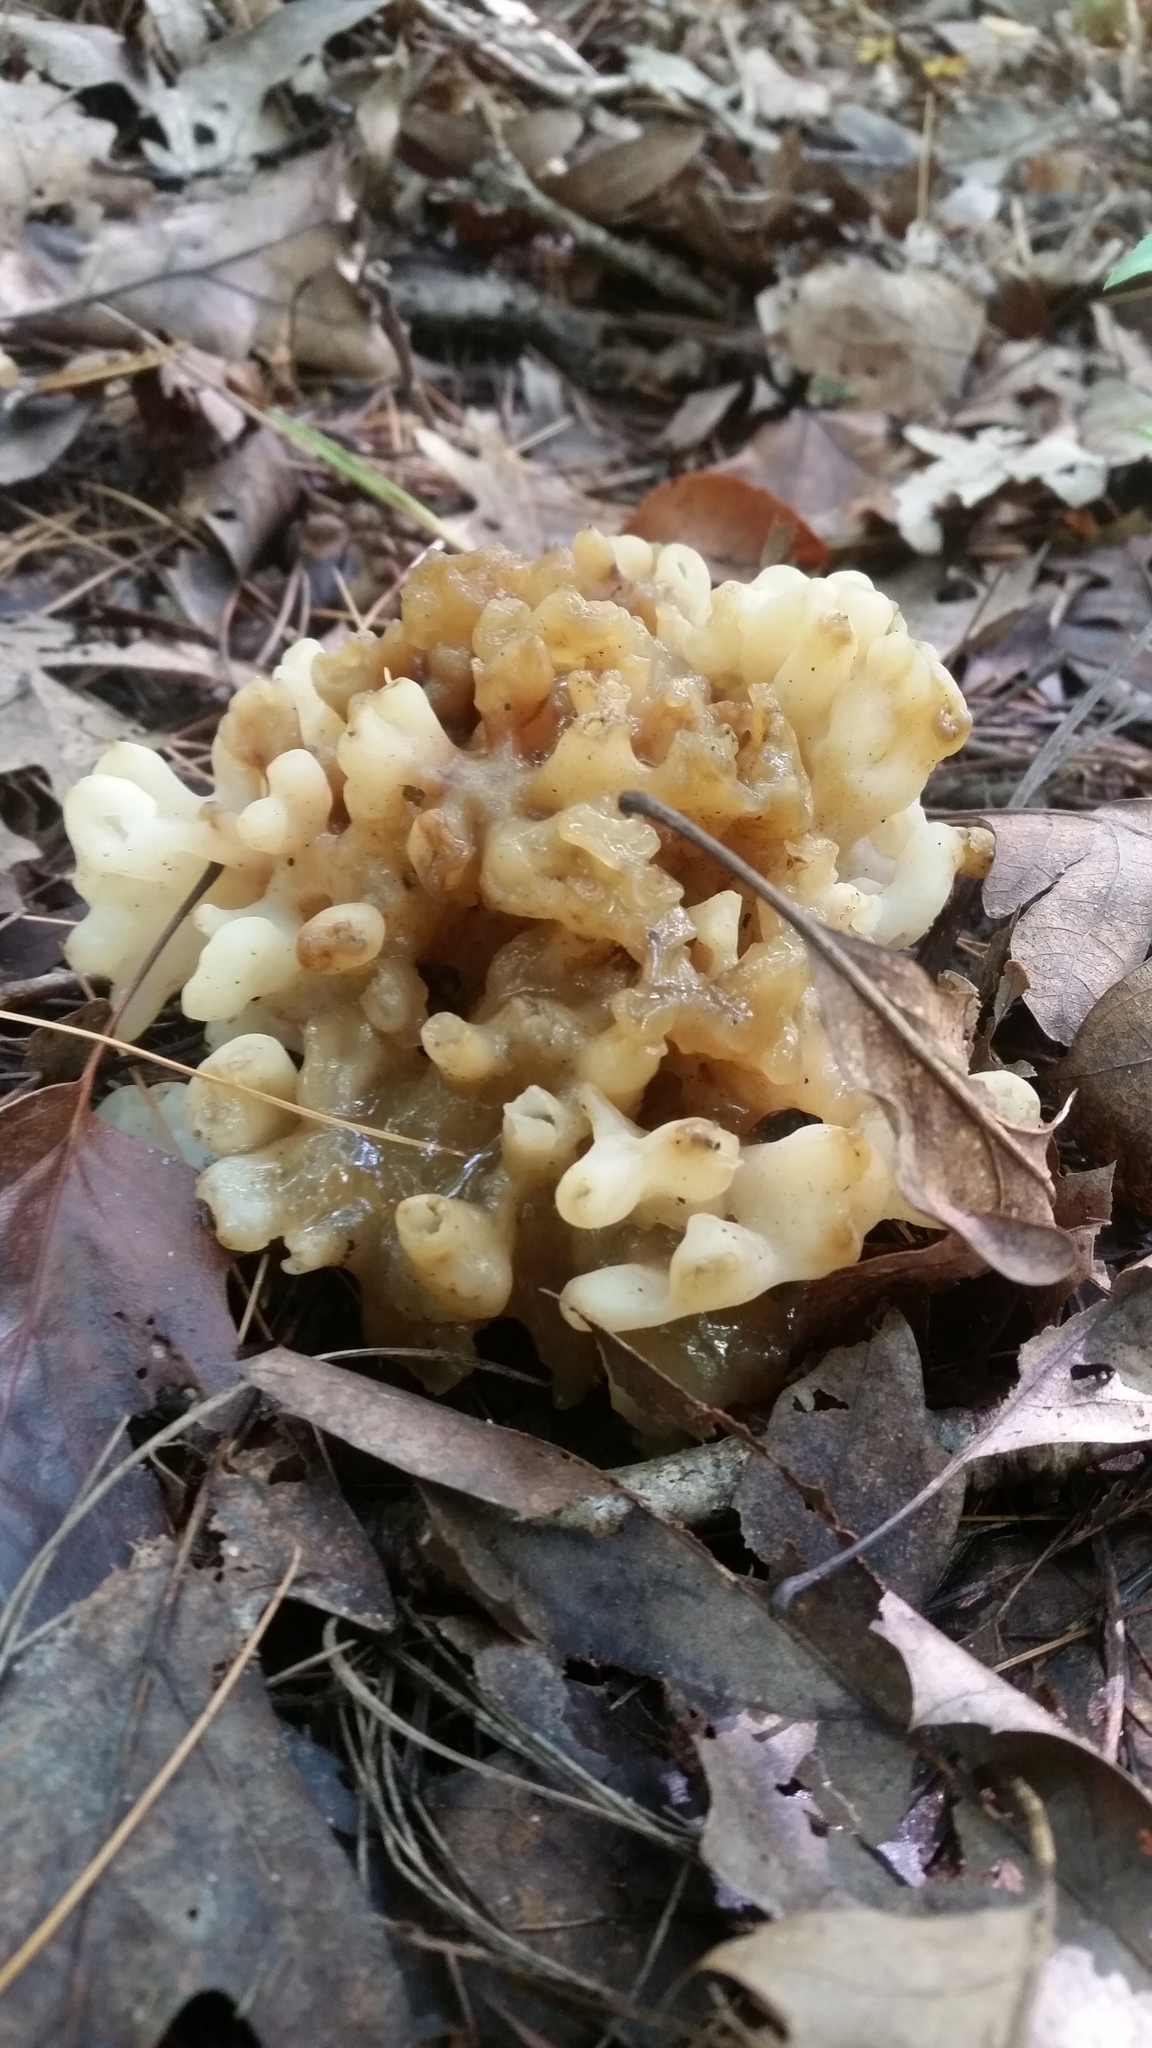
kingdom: Fungi
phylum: Basidiomycota
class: Agaricomycetes
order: Sebacinales
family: Sebacinaceae
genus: Sebacina
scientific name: Sebacina sparassoidea
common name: White coral jelly fungus
